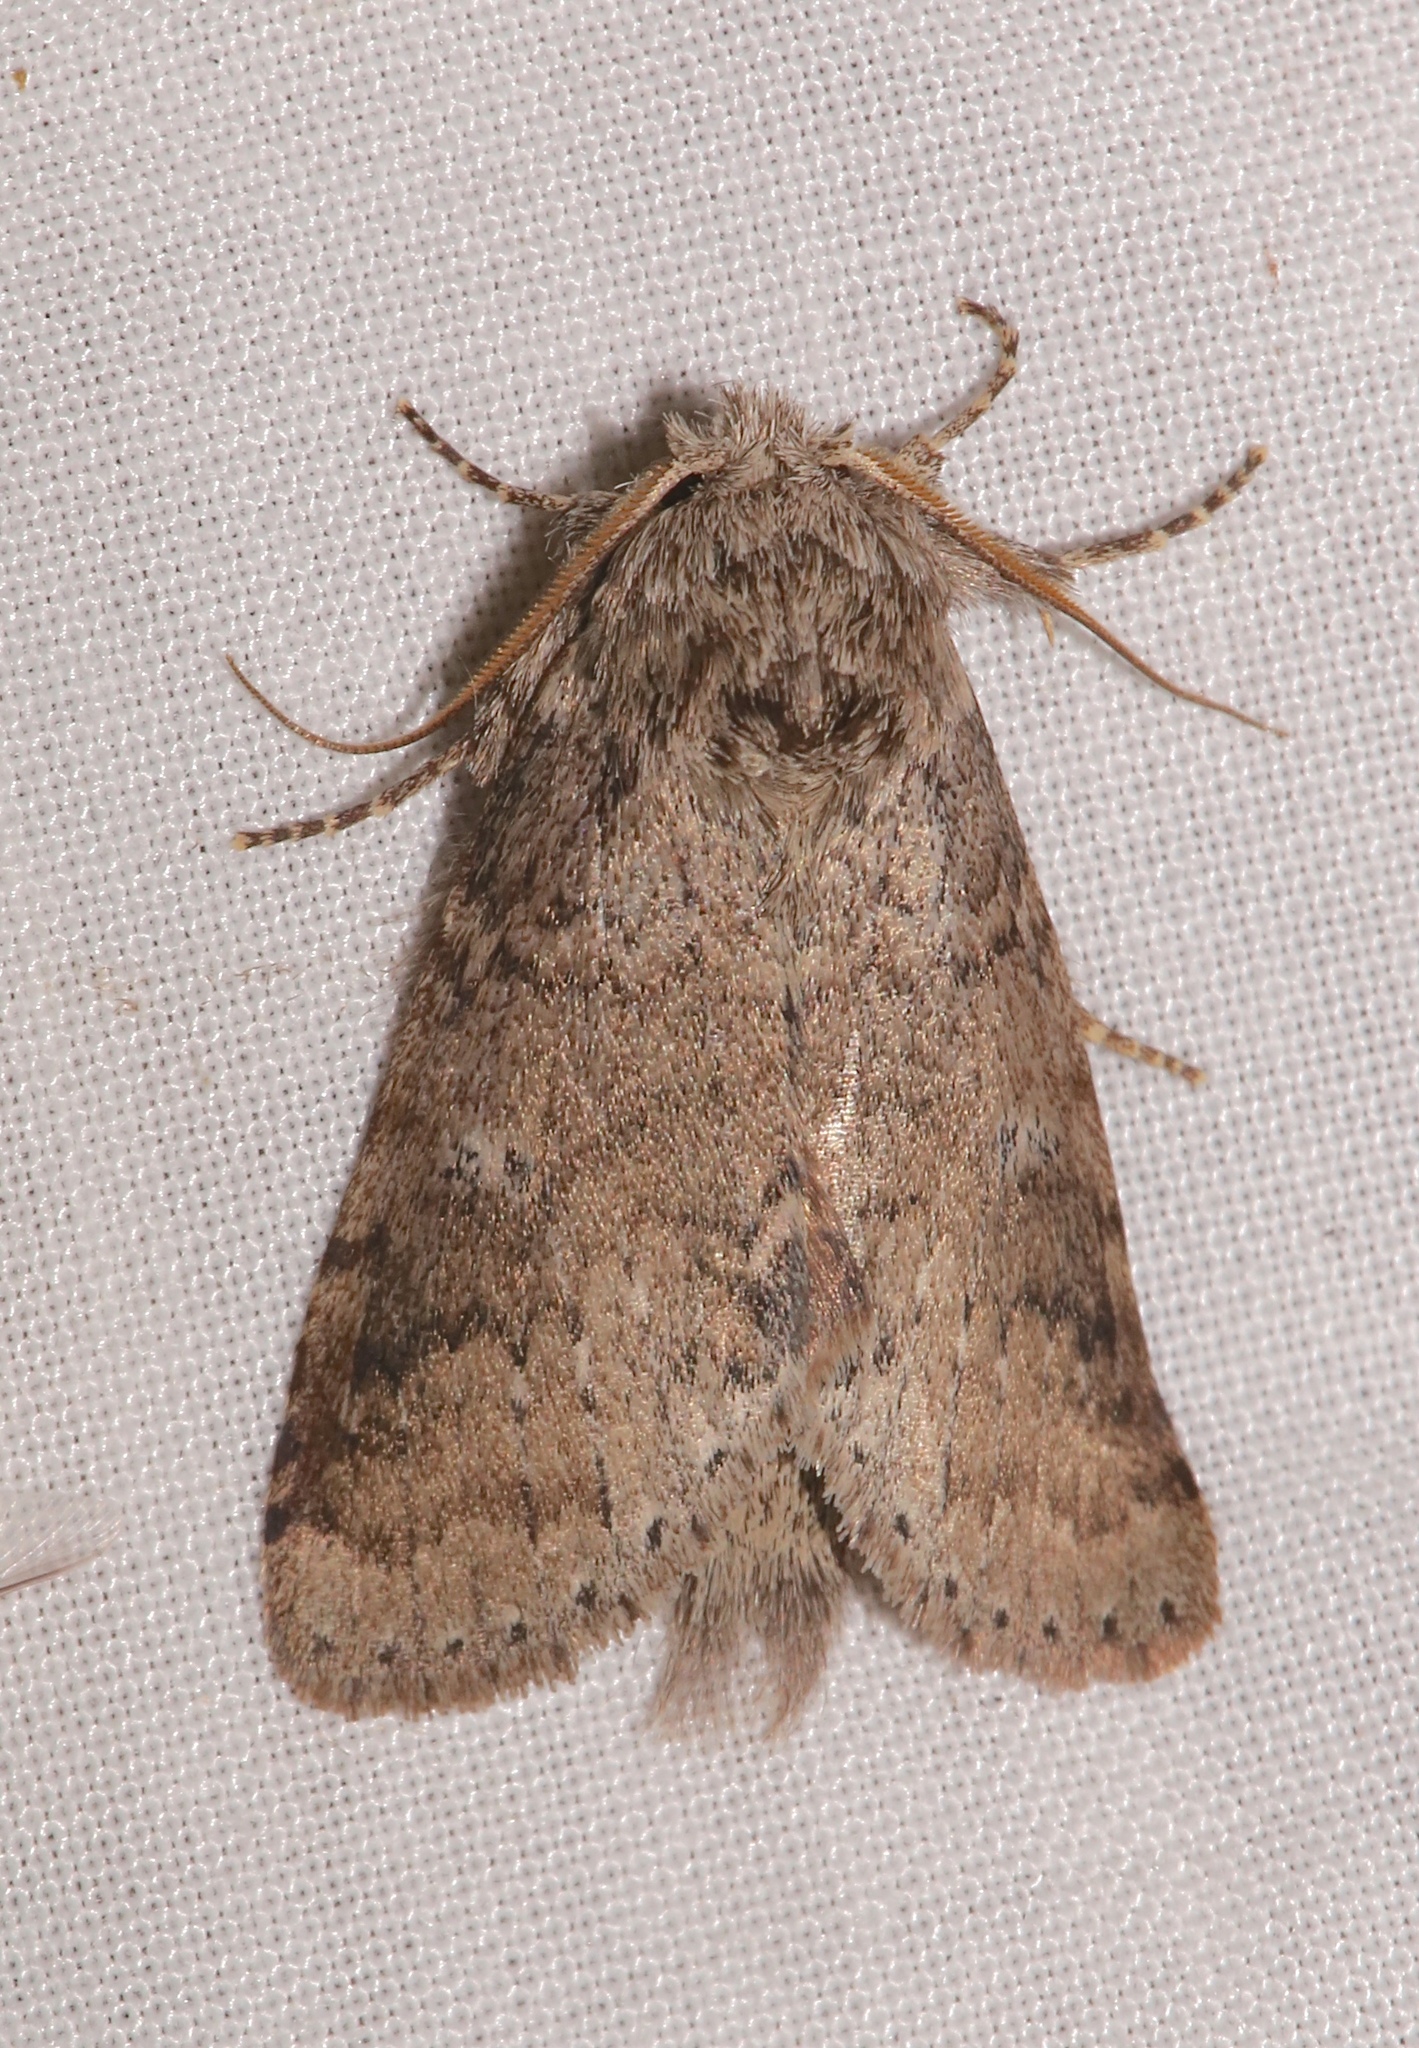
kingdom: Animalia
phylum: Arthropoda
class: Insecta
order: Lepidoptera
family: Notodontidae
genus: Lochmaeus
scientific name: Lochmaeus manteo
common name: Variable oakleaf caterpillar moth
